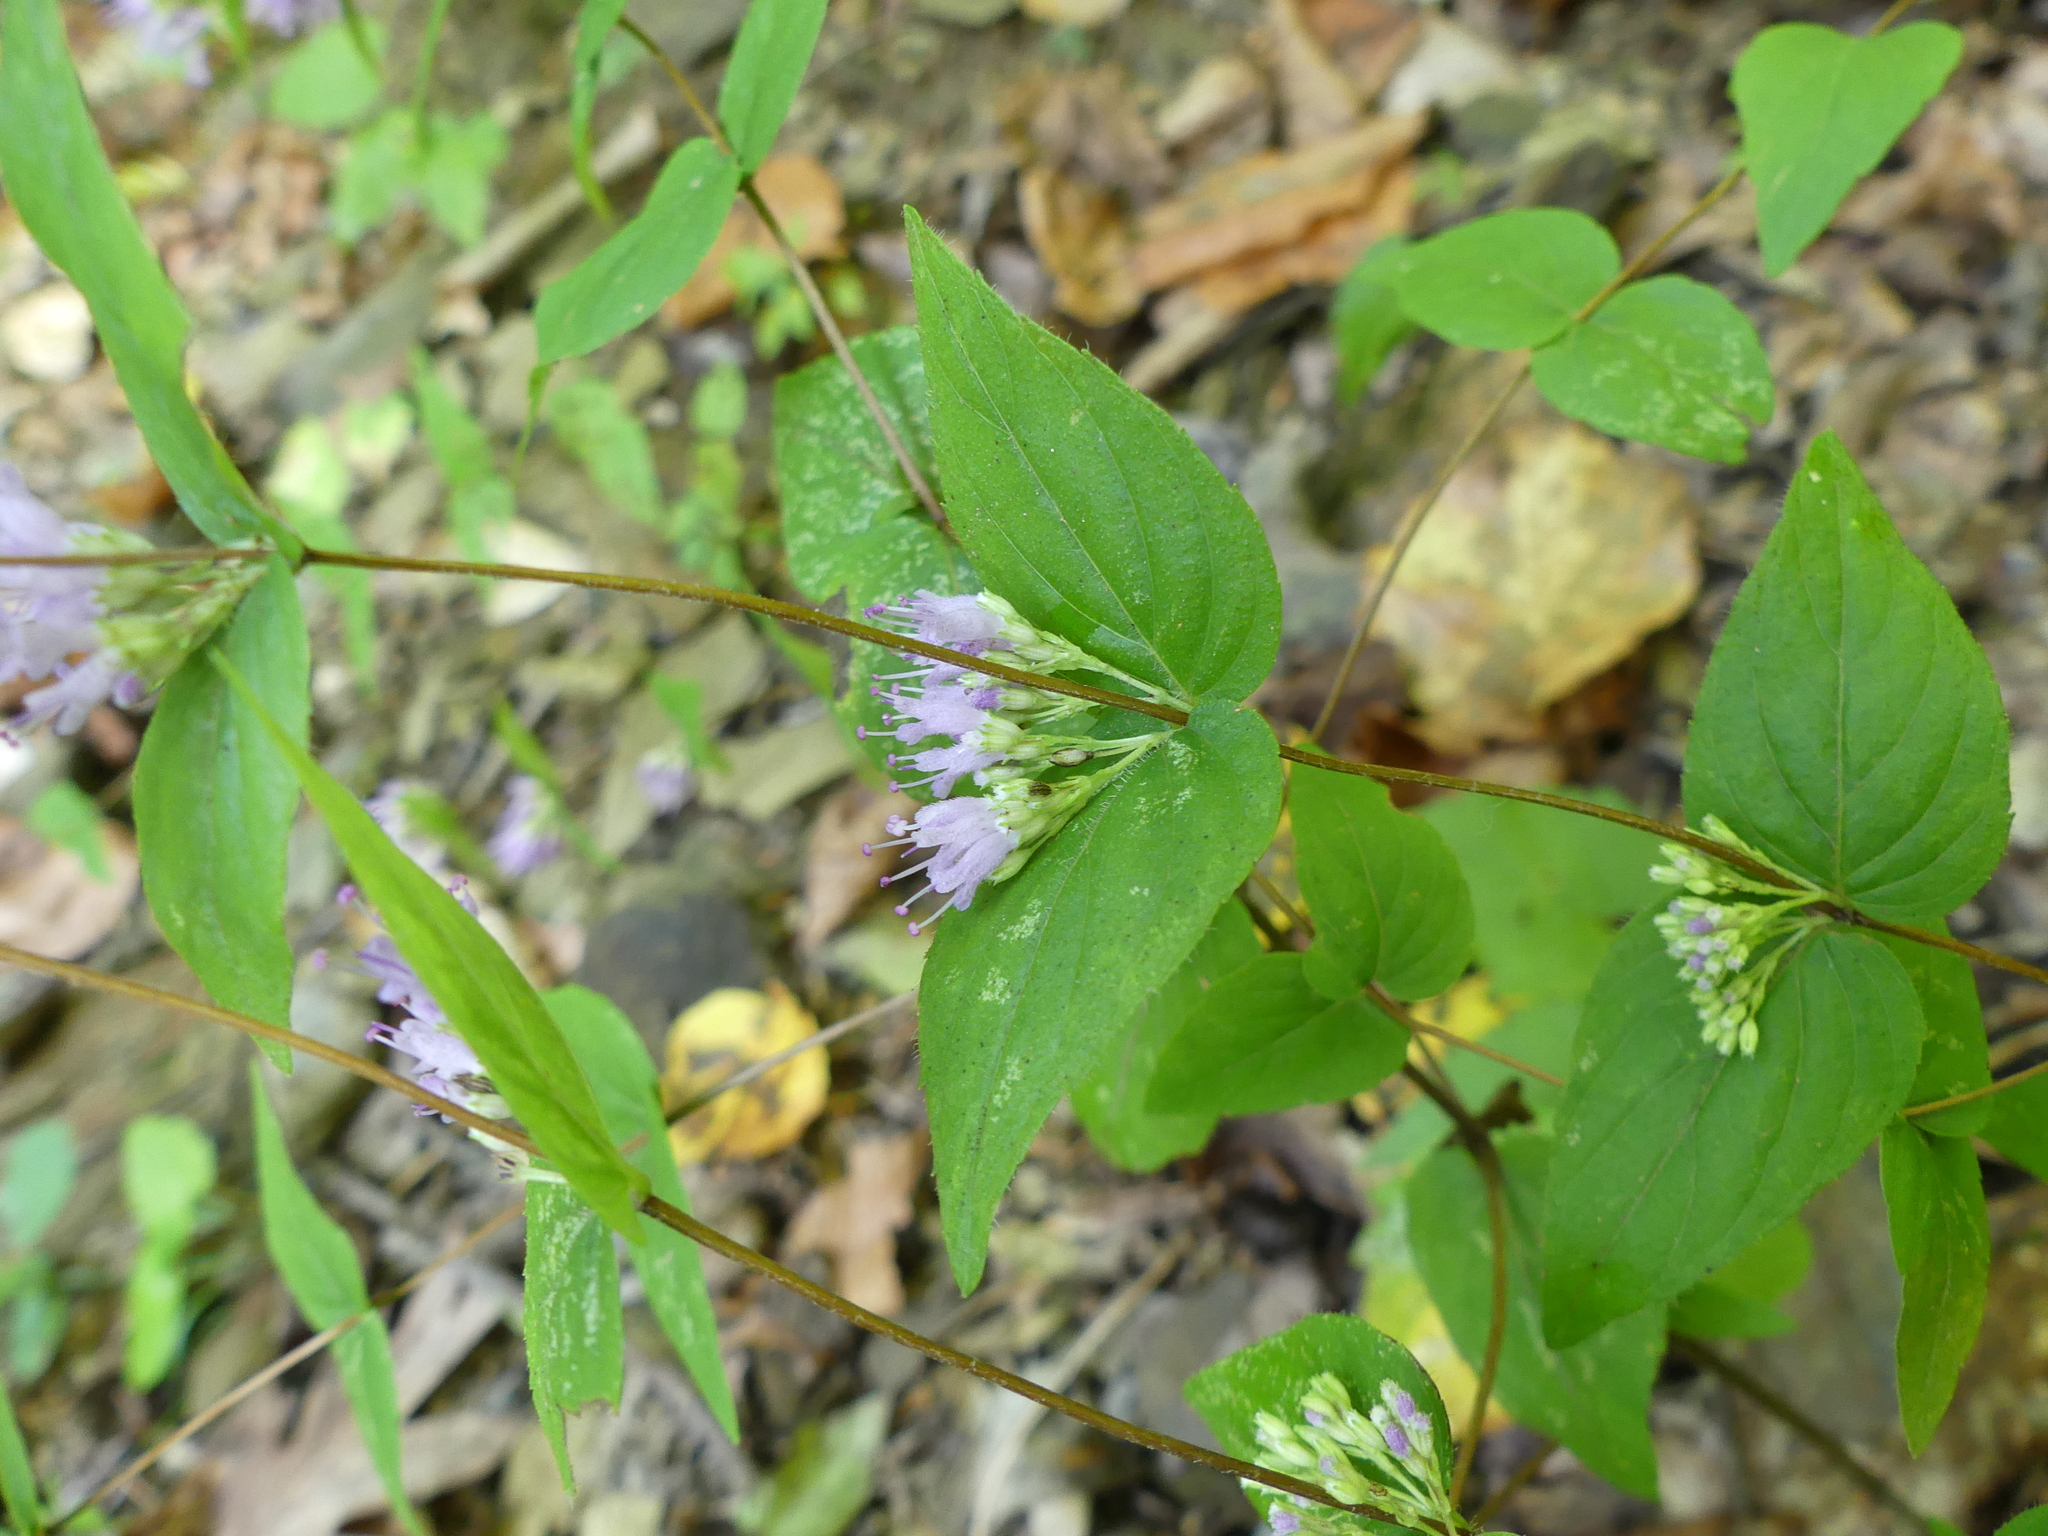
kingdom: Plantae
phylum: Tracheophyta
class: Magnoliopsida
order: Lamiales
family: Lamiaceae
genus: Cunila
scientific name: Cunila origanoides
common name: American dittany
